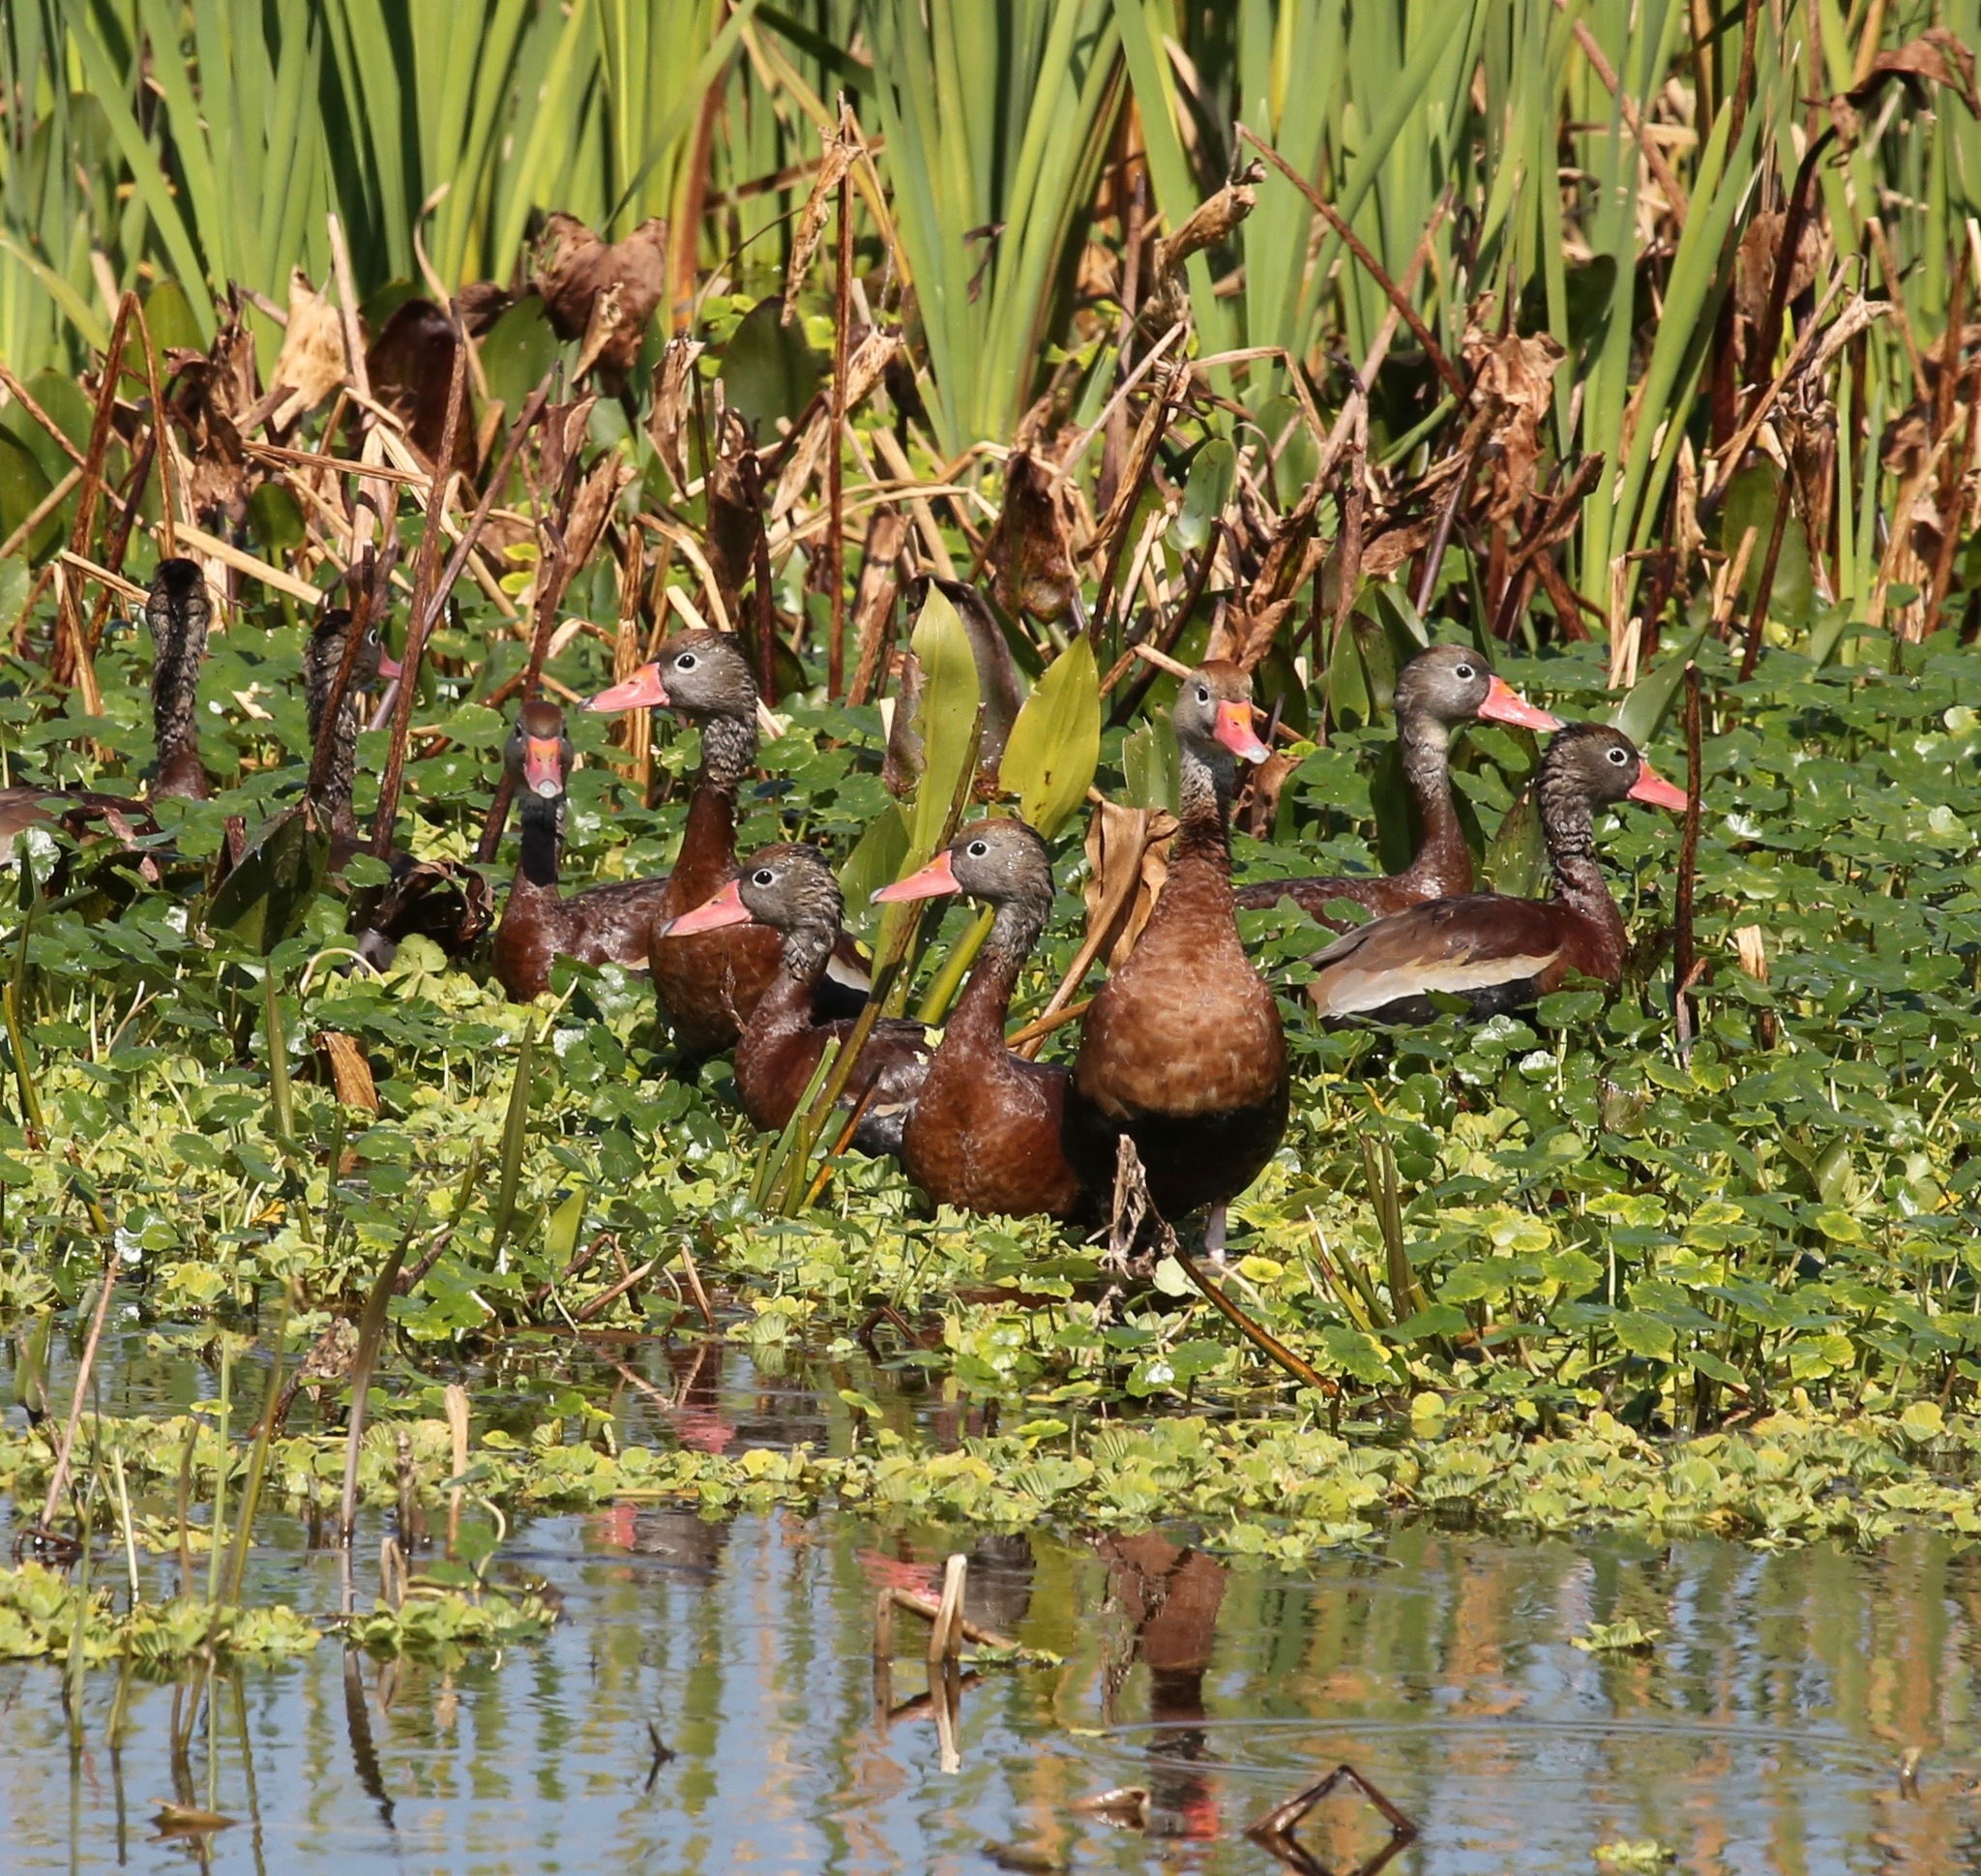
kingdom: Animalia
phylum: Chordata
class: Aves
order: Anseriformes
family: Anatidae
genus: Dendrocygna
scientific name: Dendrocygna autumnalis
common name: Black-bellied whistling duck
